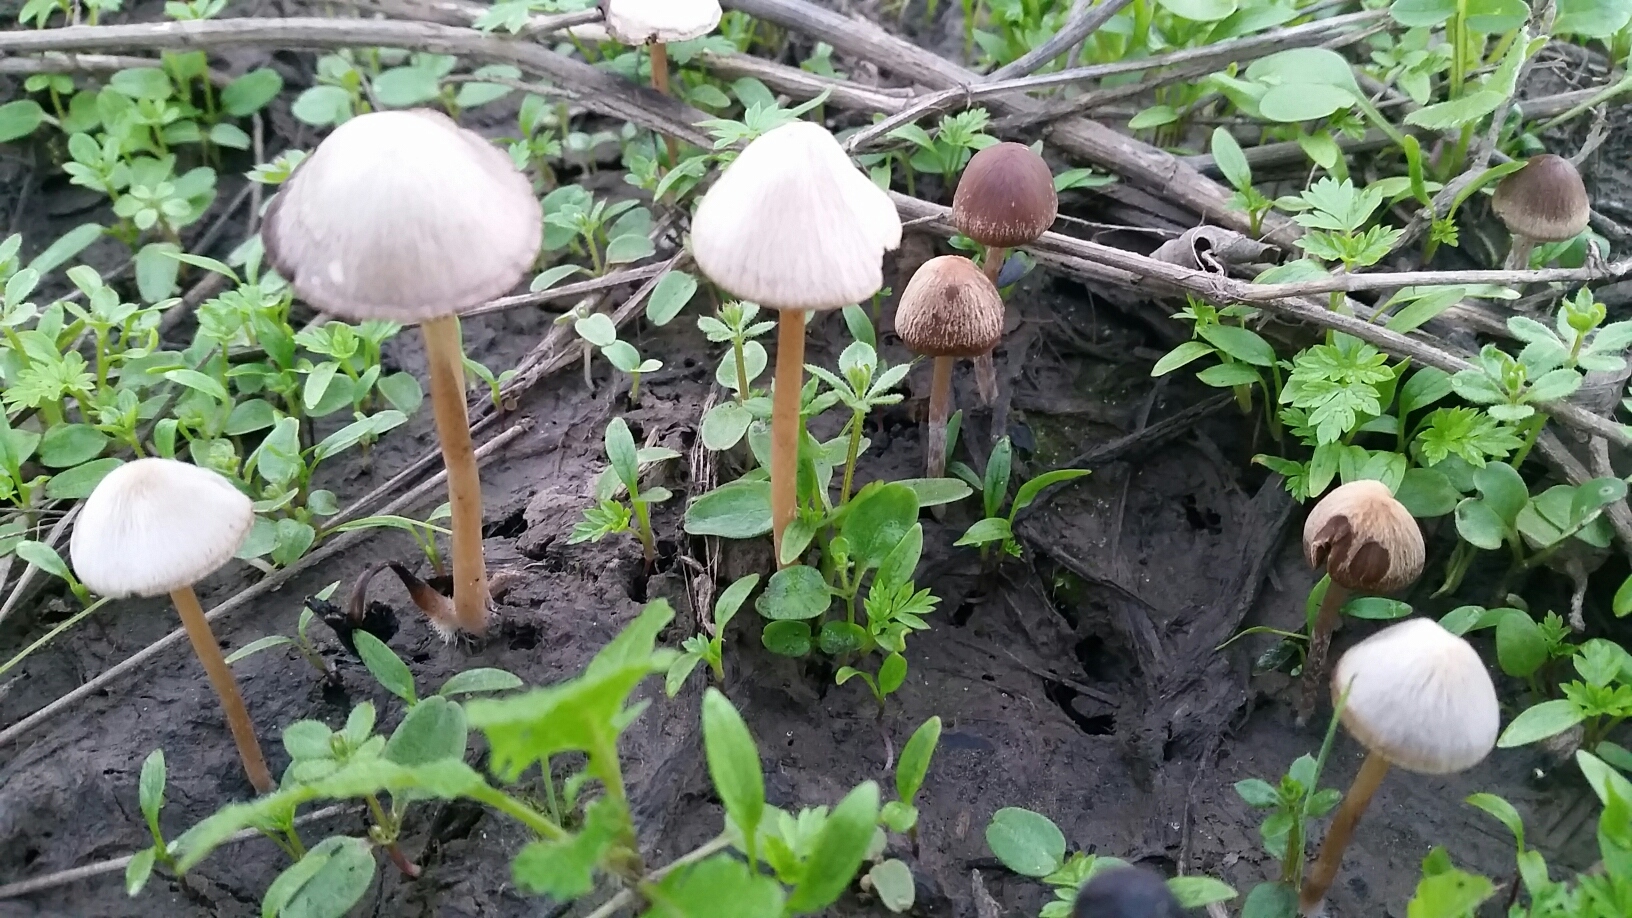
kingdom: Fungi
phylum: Basidiomycota
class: Agaricomycetes
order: Agaricales
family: Psathyrellaceae
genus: Psathyrella
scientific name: Psathyrella bipellis
